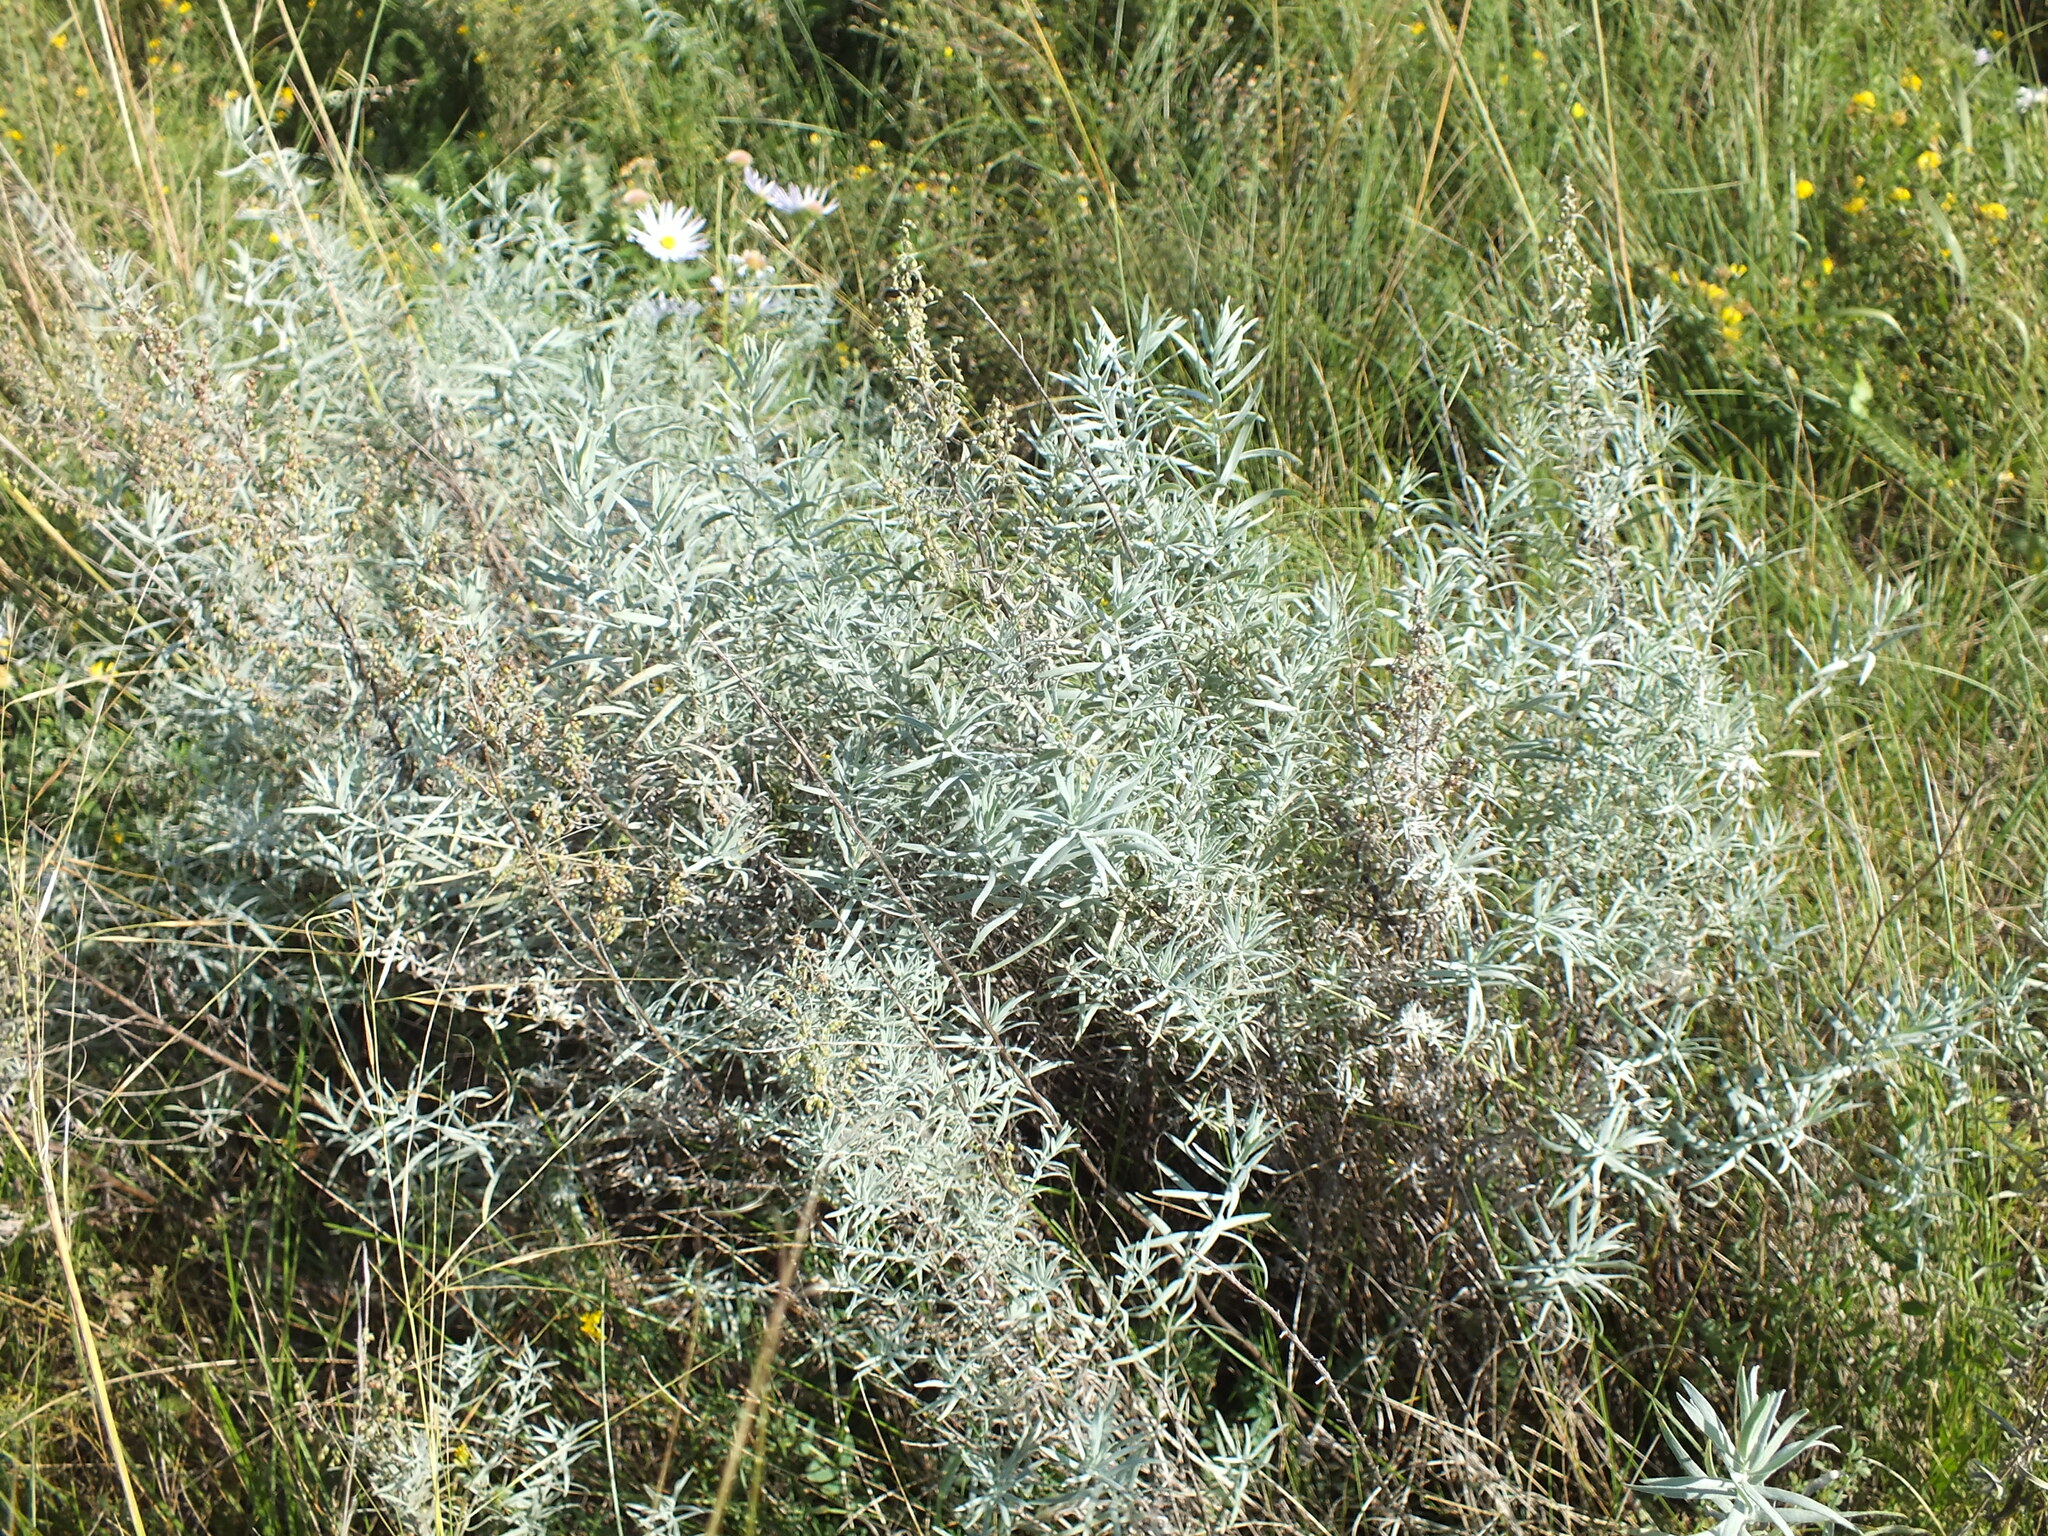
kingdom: Plantae
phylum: Tracheophyta
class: Magnoliopsida
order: Asterales
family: Asteraceae
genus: Artemisia
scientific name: Artemisia glauca
